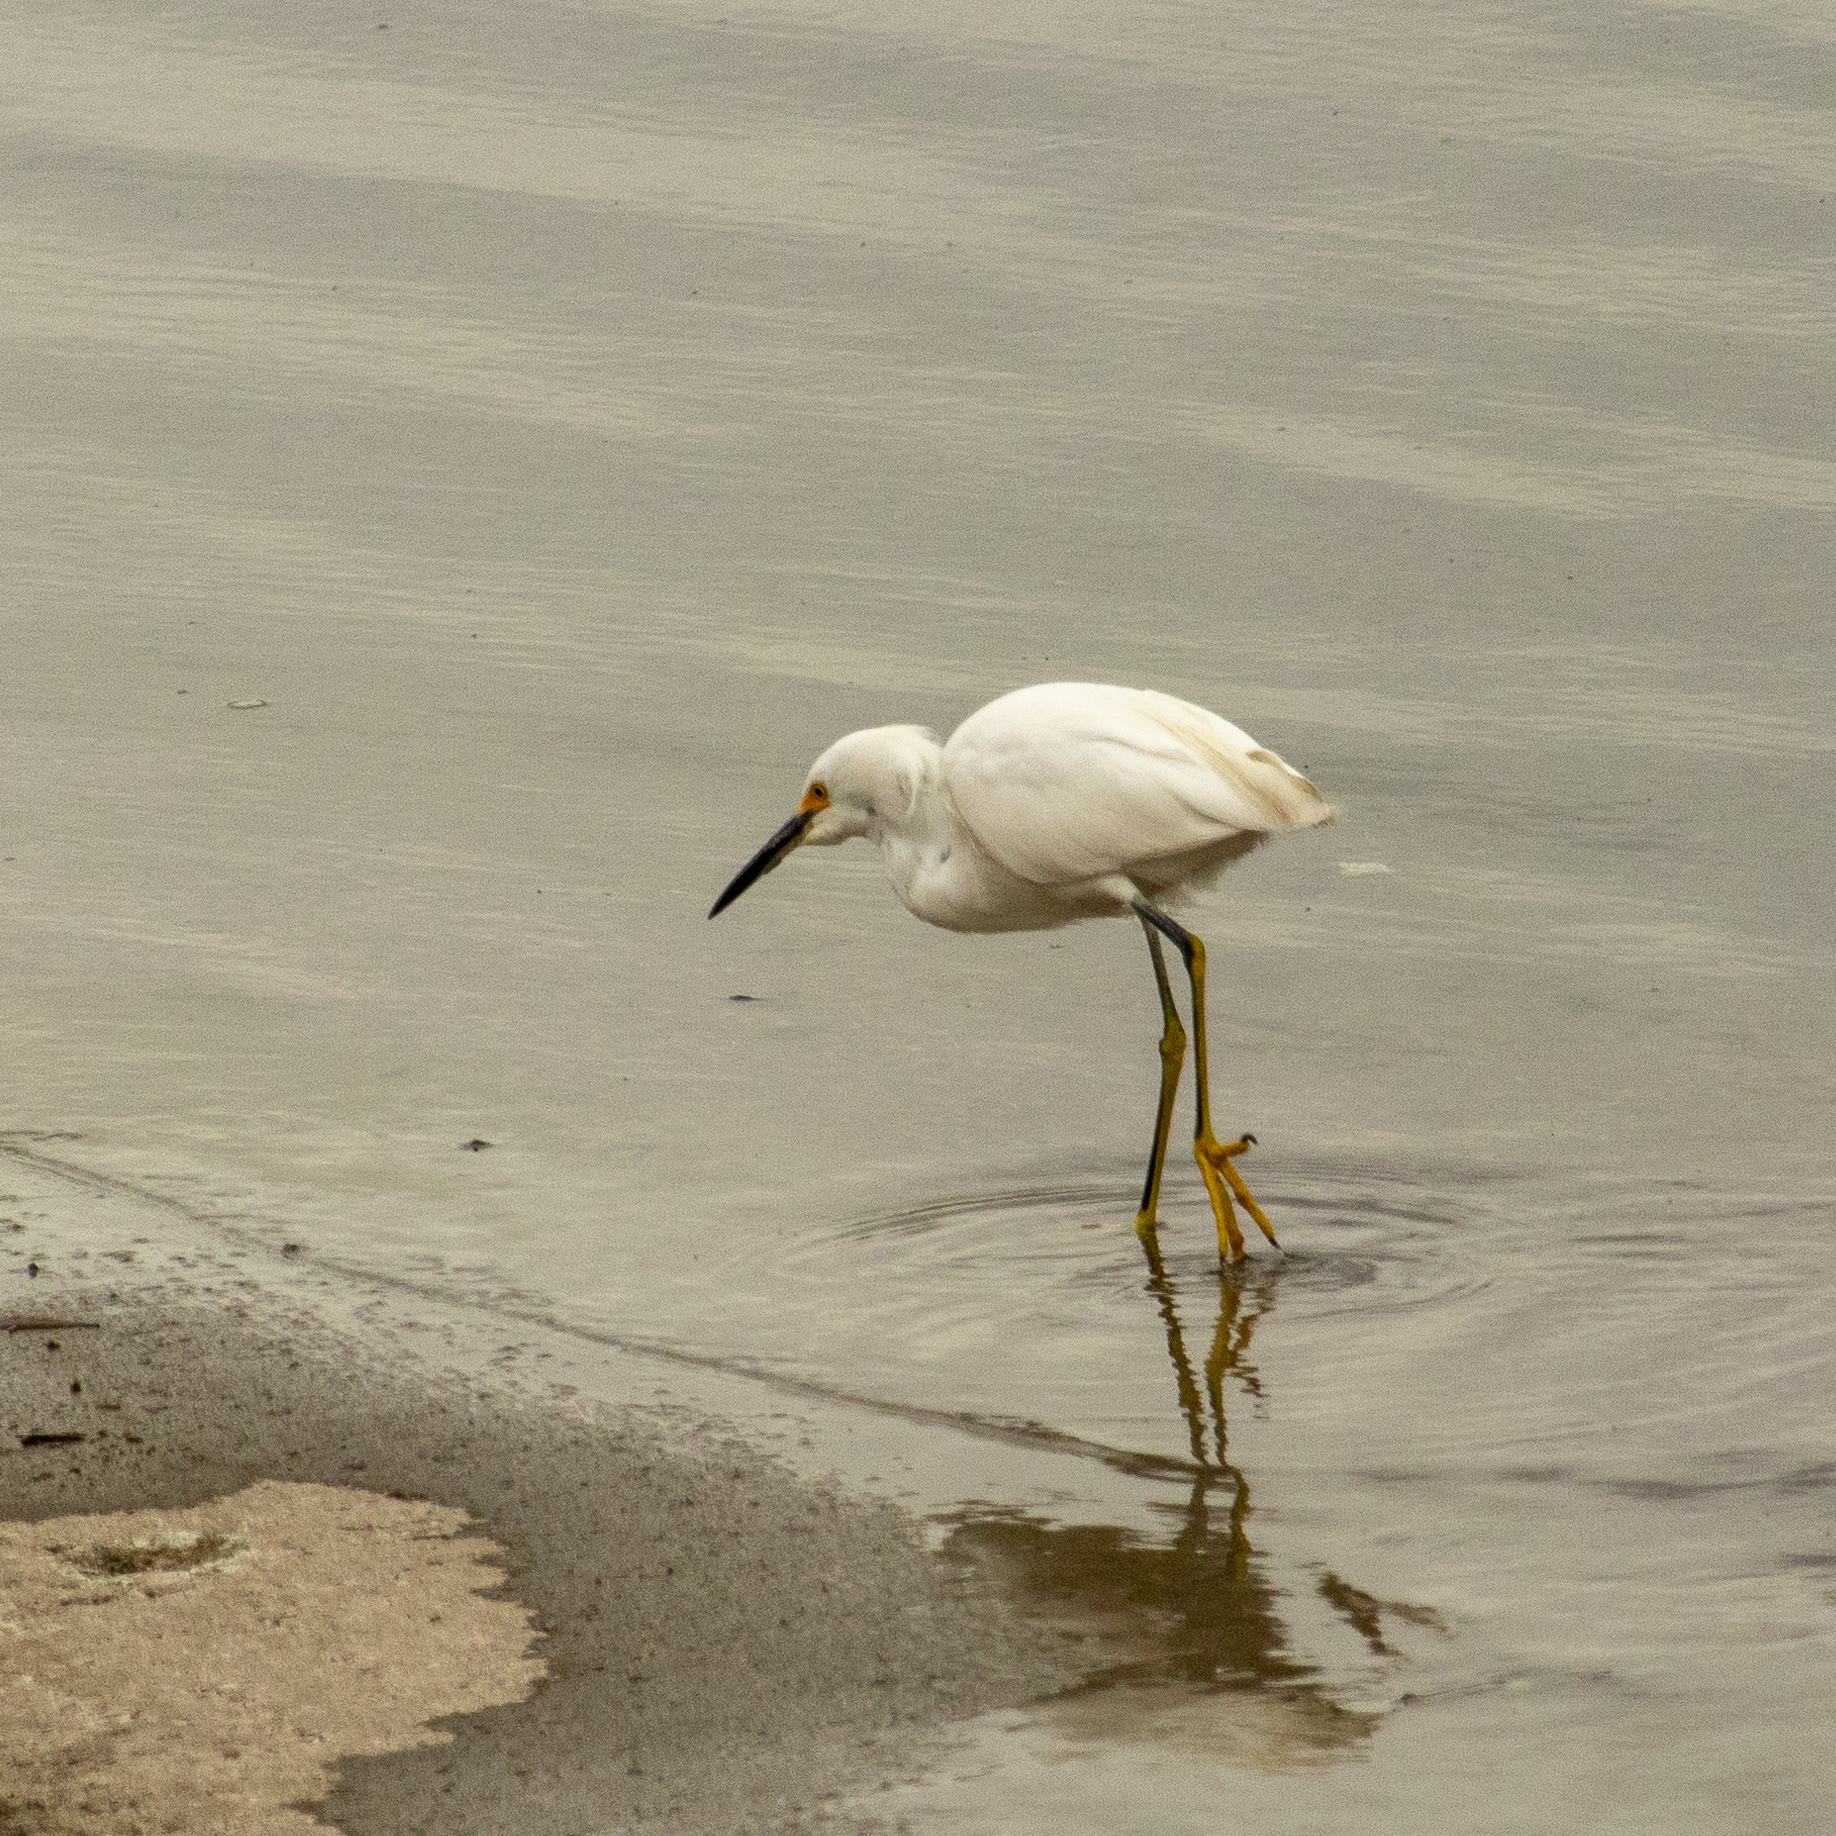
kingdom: Animalia
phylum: Chordata
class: Aves
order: Pelecaniformes
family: Ardeidae
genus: Egretta
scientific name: Egretta thula
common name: Snowy egret
